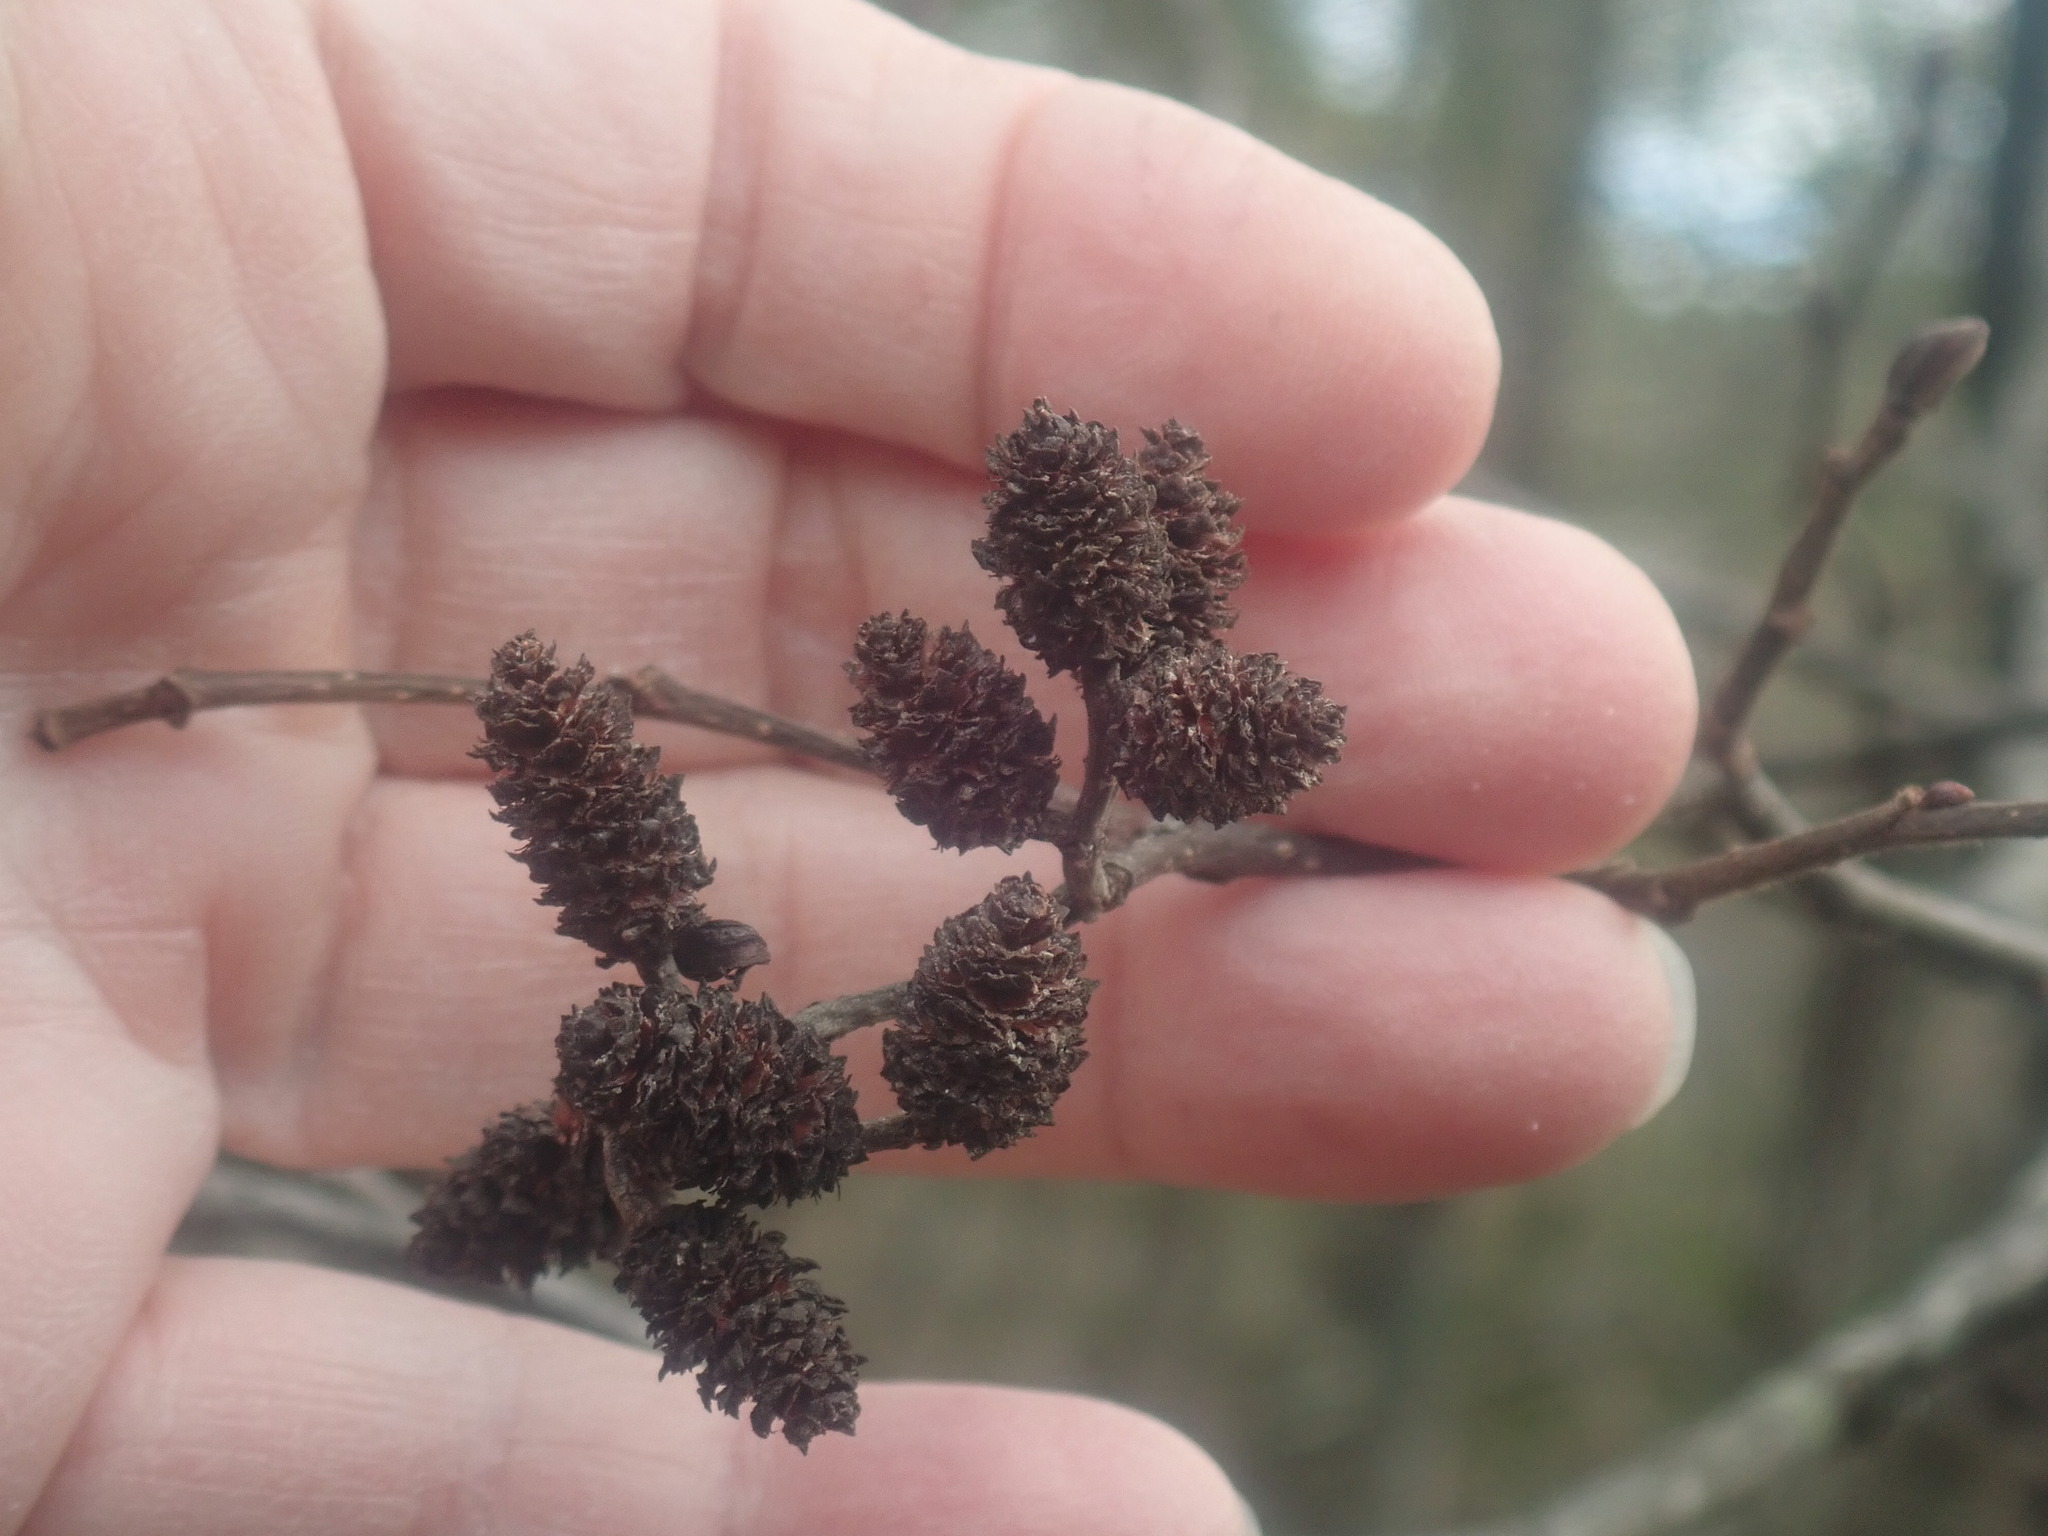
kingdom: Plantae
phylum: Tracheophyta
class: Magnoliopsida
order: Fagales
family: Betulaceae
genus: Alnus
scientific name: Alnus
